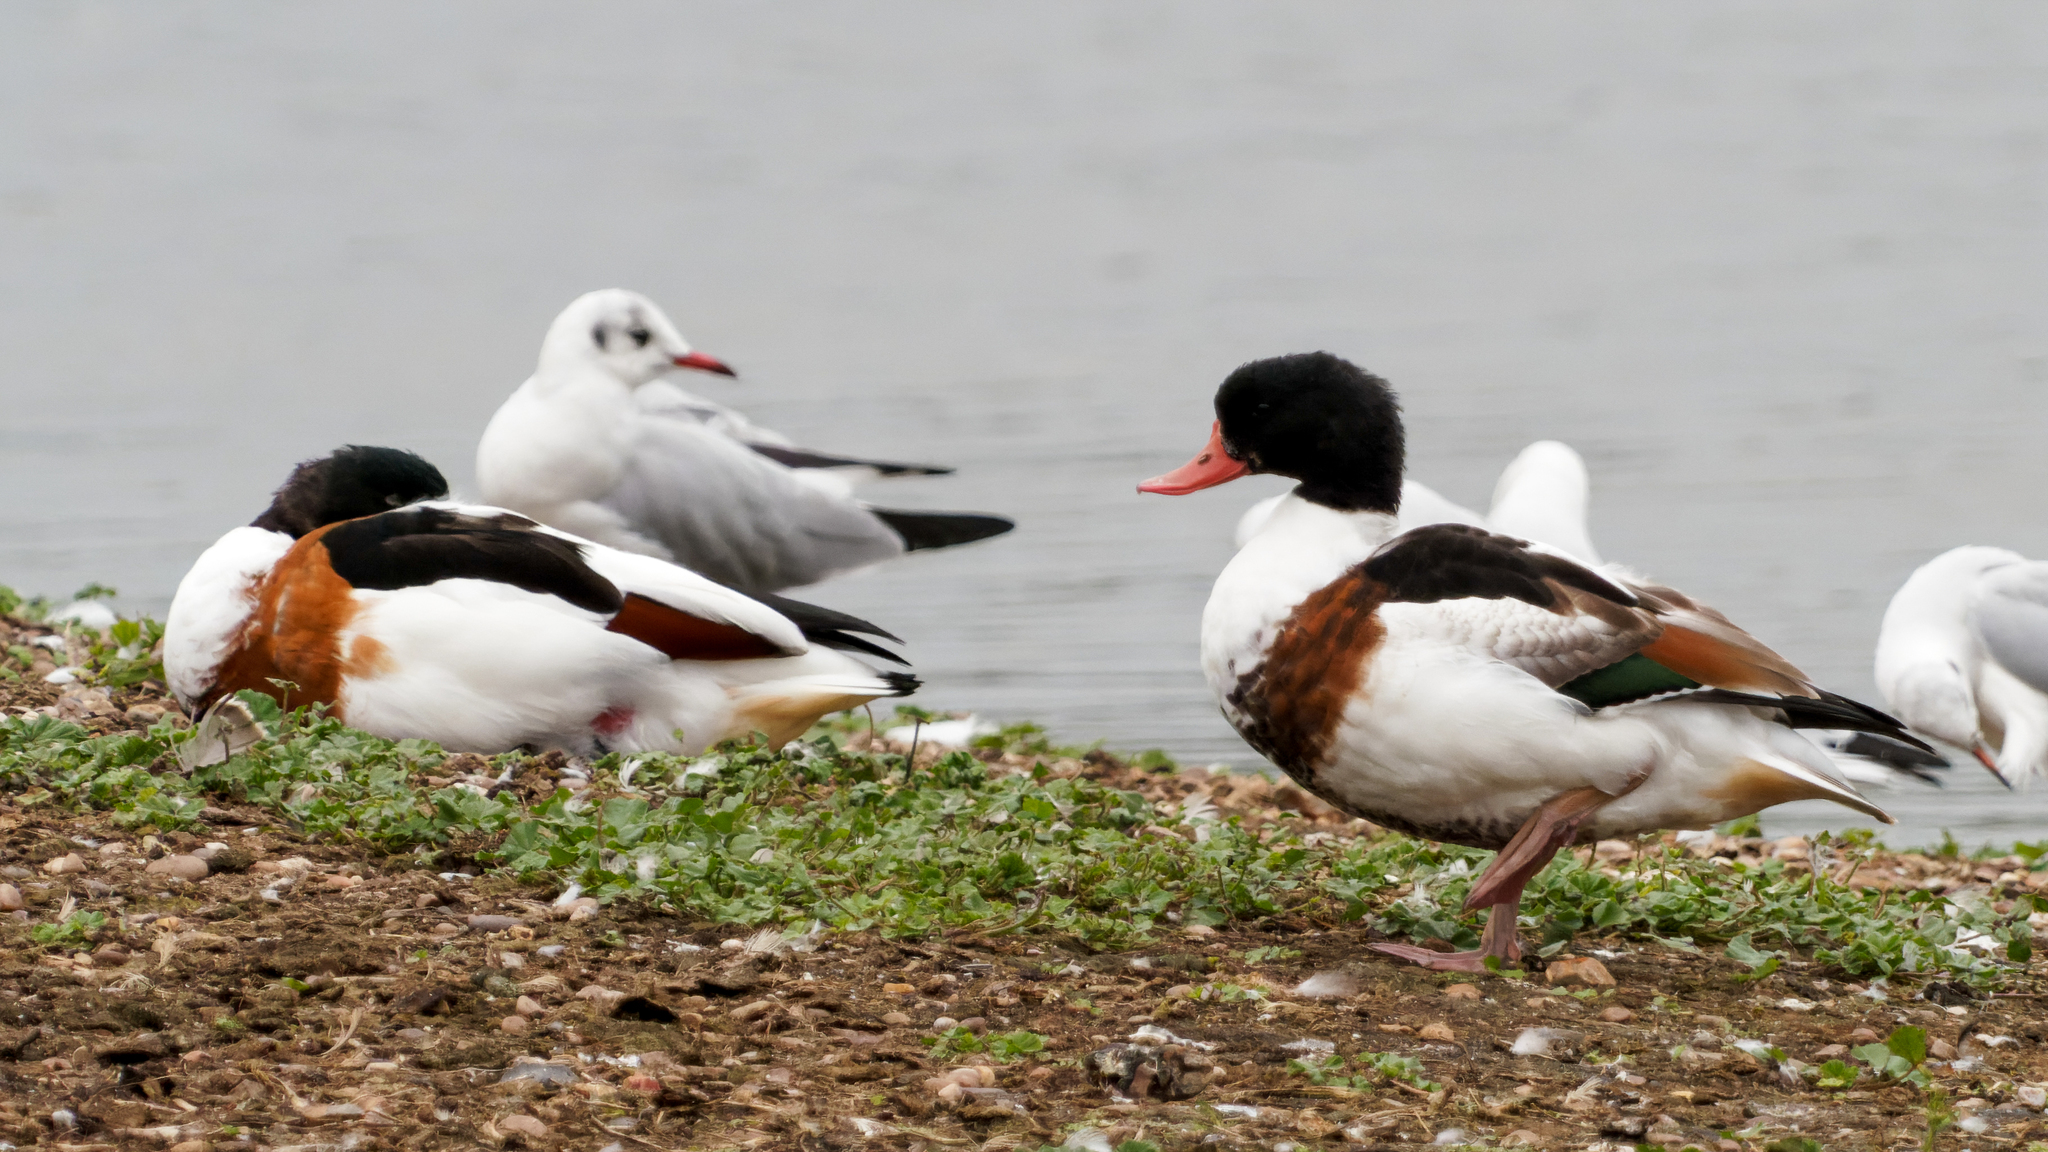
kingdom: Animalia
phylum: Chordata
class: Aves
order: Anseriformes
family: Anatidae
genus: Tadorna
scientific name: Tadorna tadorna
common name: Common shelduck
